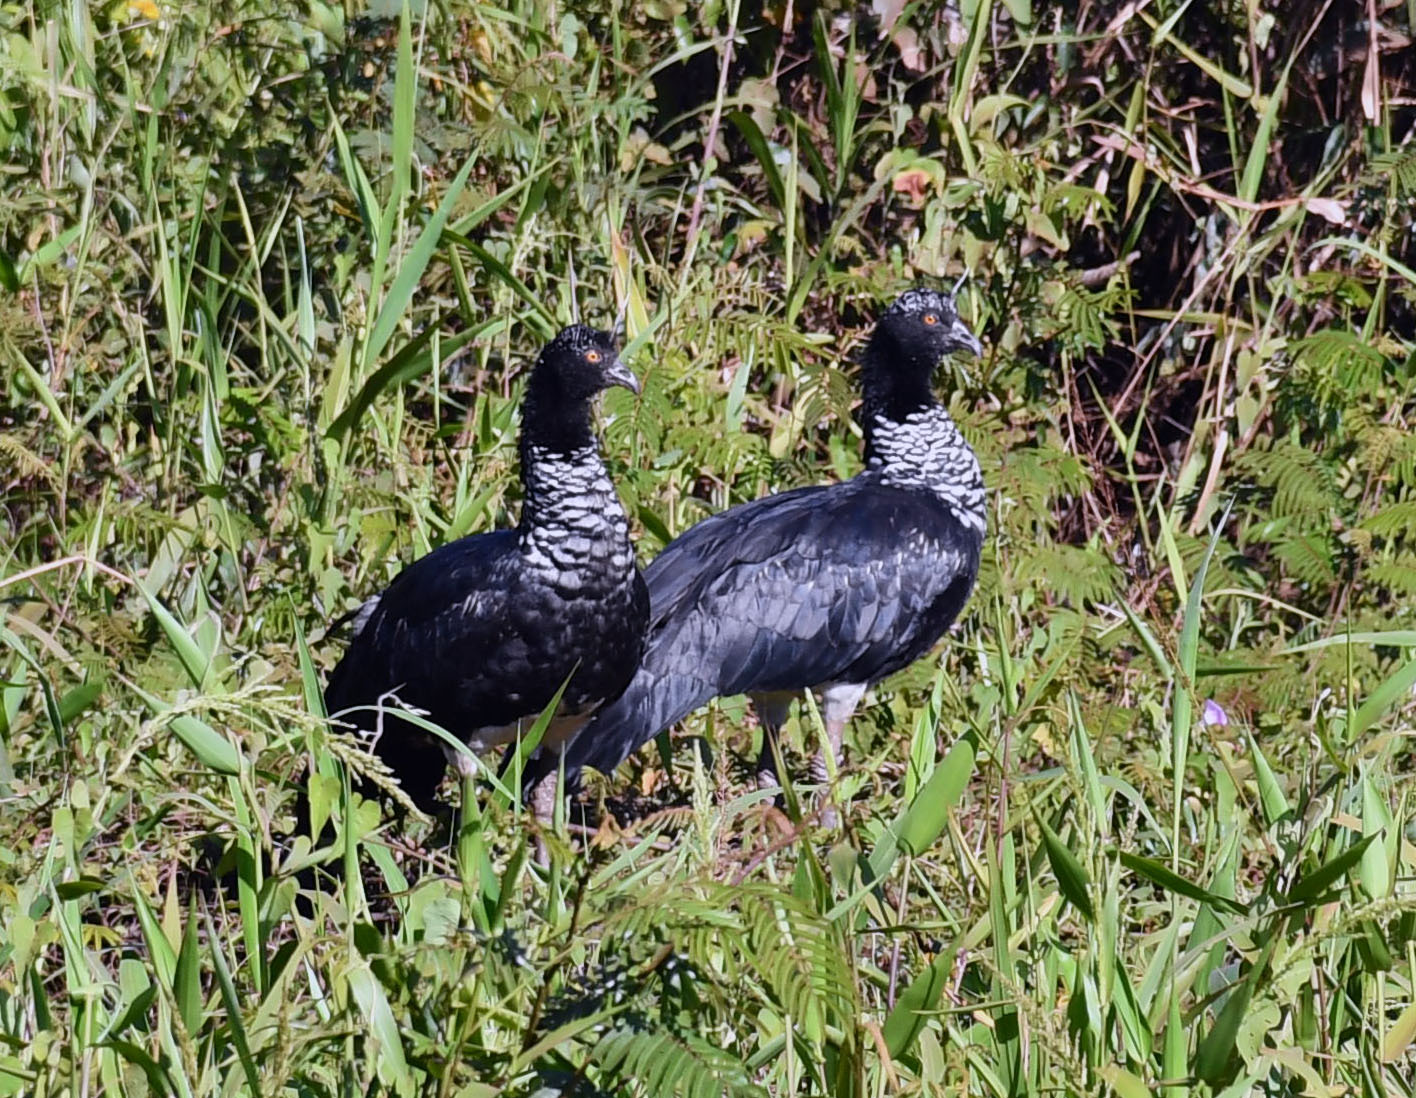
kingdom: Animalia
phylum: Chordata
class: Aves
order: Anseriformes
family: Anhimidae
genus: Anhima
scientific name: Anhima cornuta
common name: Horned screamer
